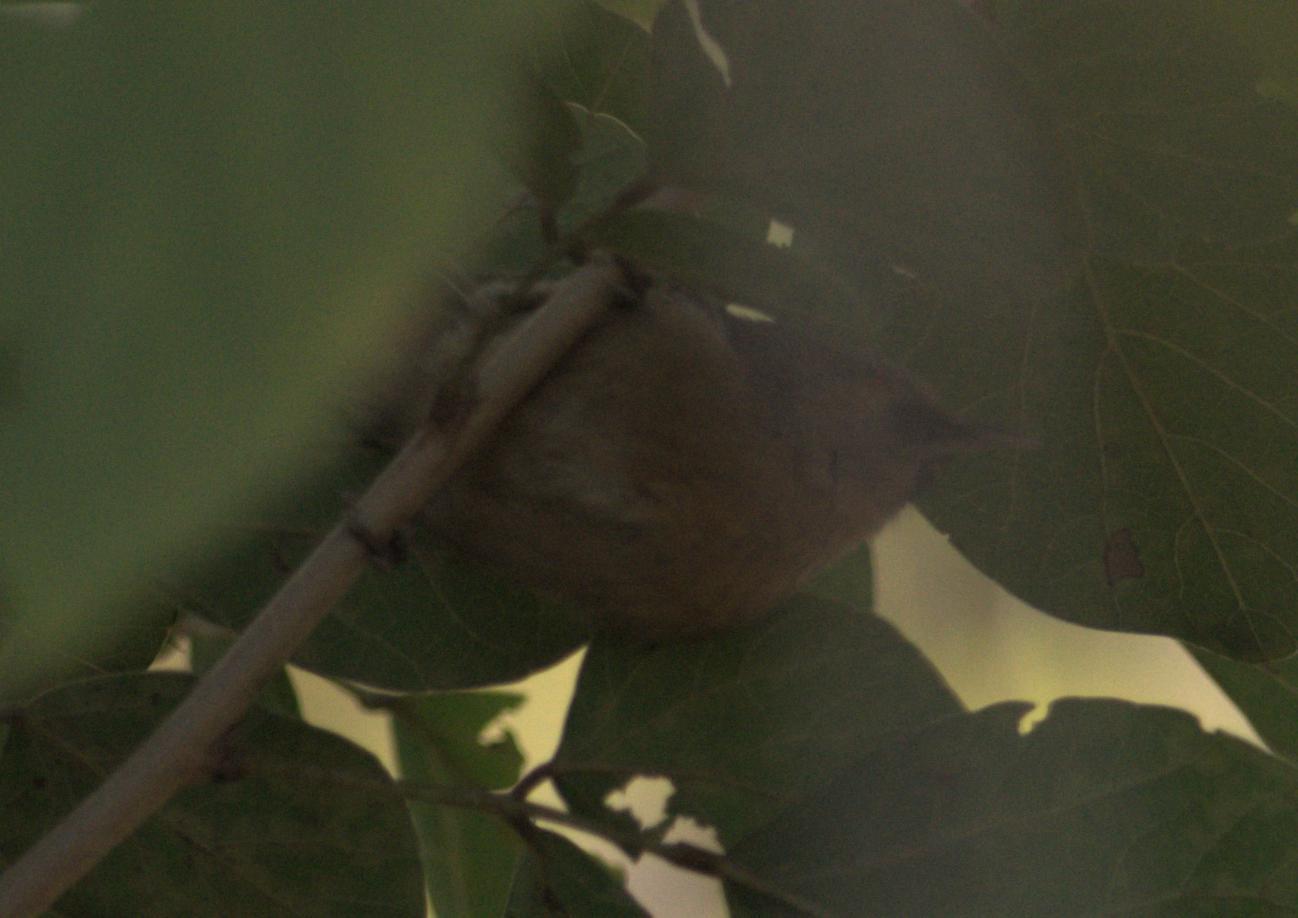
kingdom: Animalia
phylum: Chordata
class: Aves
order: Passeriformes
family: Timaliidae
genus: Stachyridopsis
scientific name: Stachyridopsis pyrrhops
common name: Black-chinned babbler
